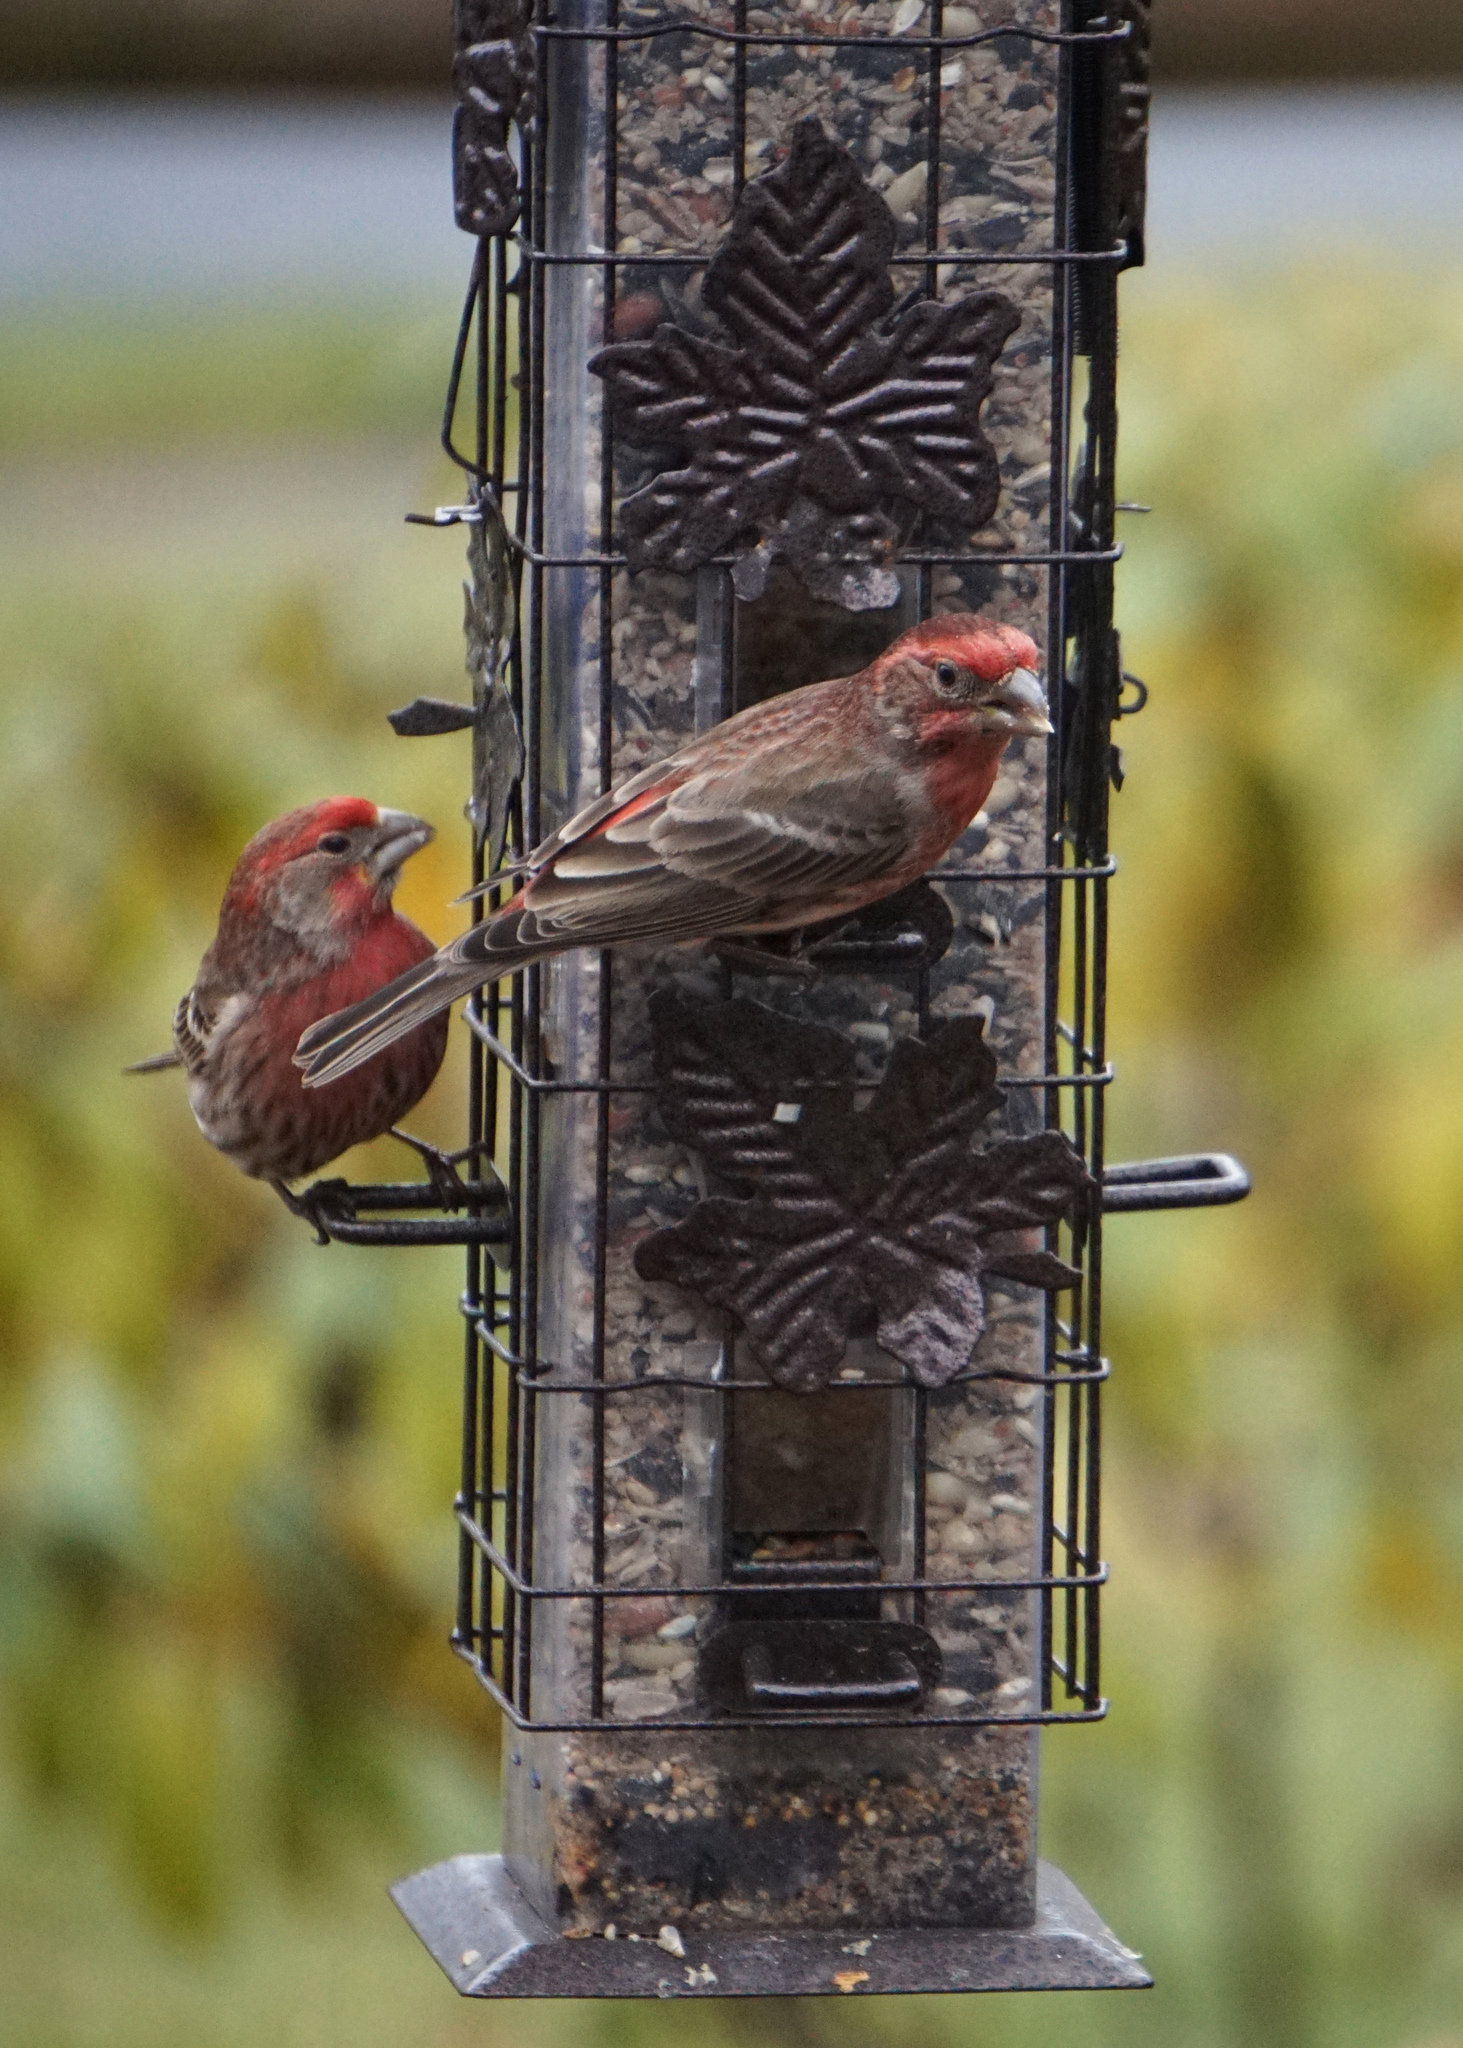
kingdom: Animalia
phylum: Chordata
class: Aves
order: Passeriformes
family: Fringillidae
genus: Haemorhous
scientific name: Haemorhous mexicanus
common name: House finch
